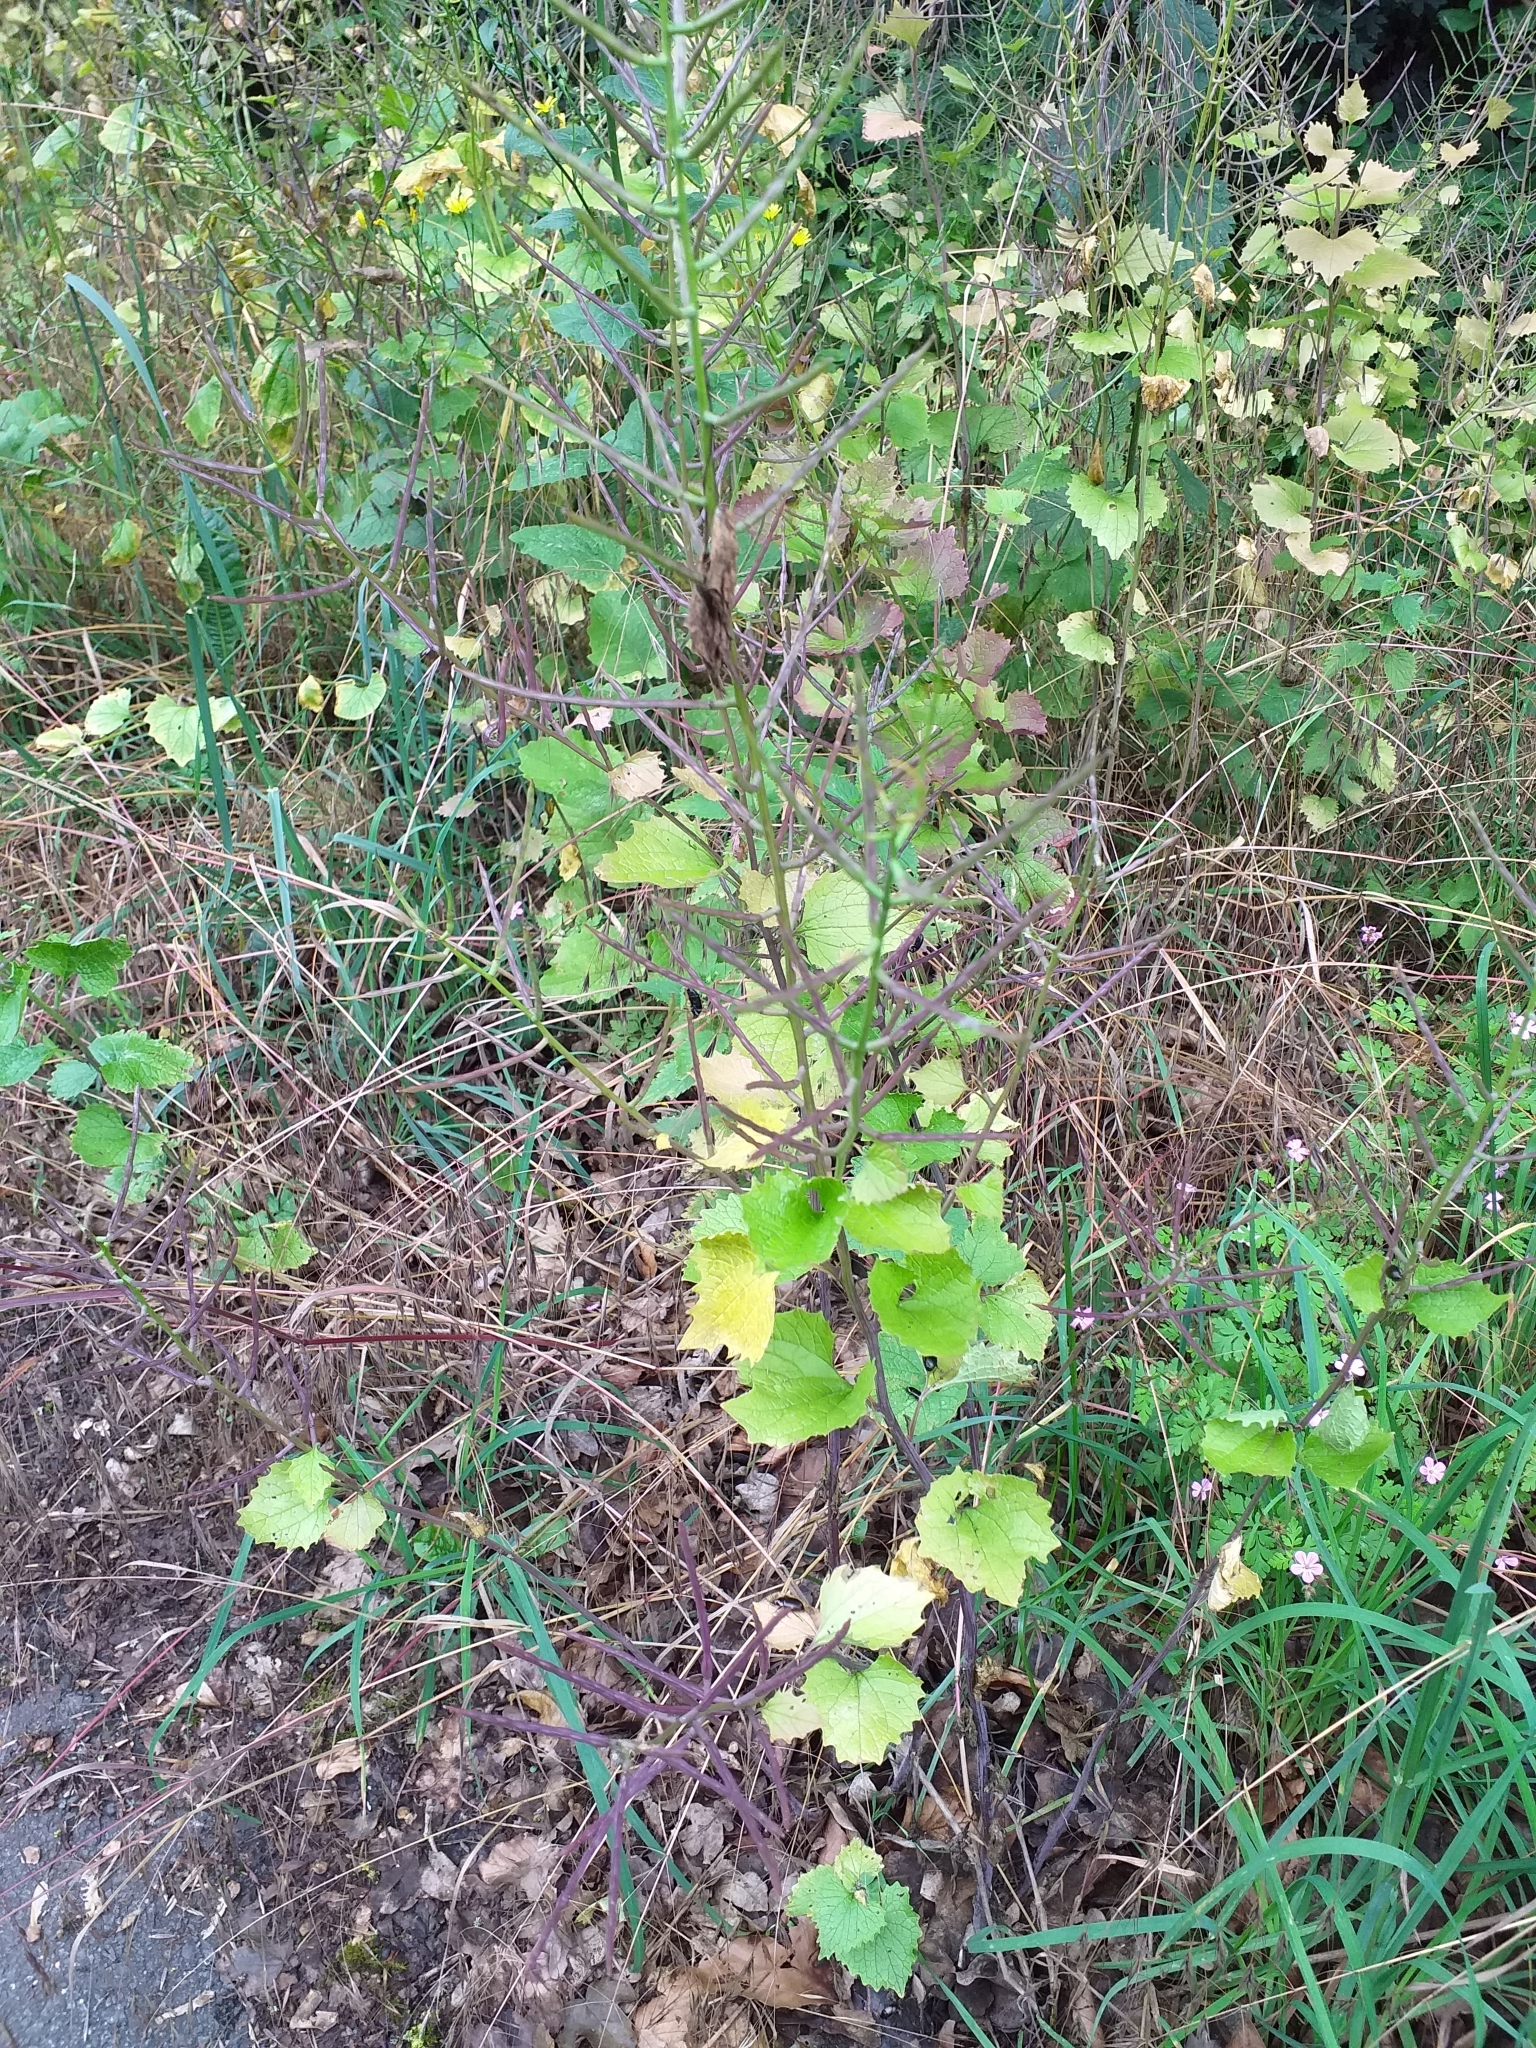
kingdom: Plantae
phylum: Tracheophyta
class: Magnoliopsida
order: Brassicales
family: Brassicaceae
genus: Alliaria
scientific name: Alliaria petiolata
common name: Garlic mustard
